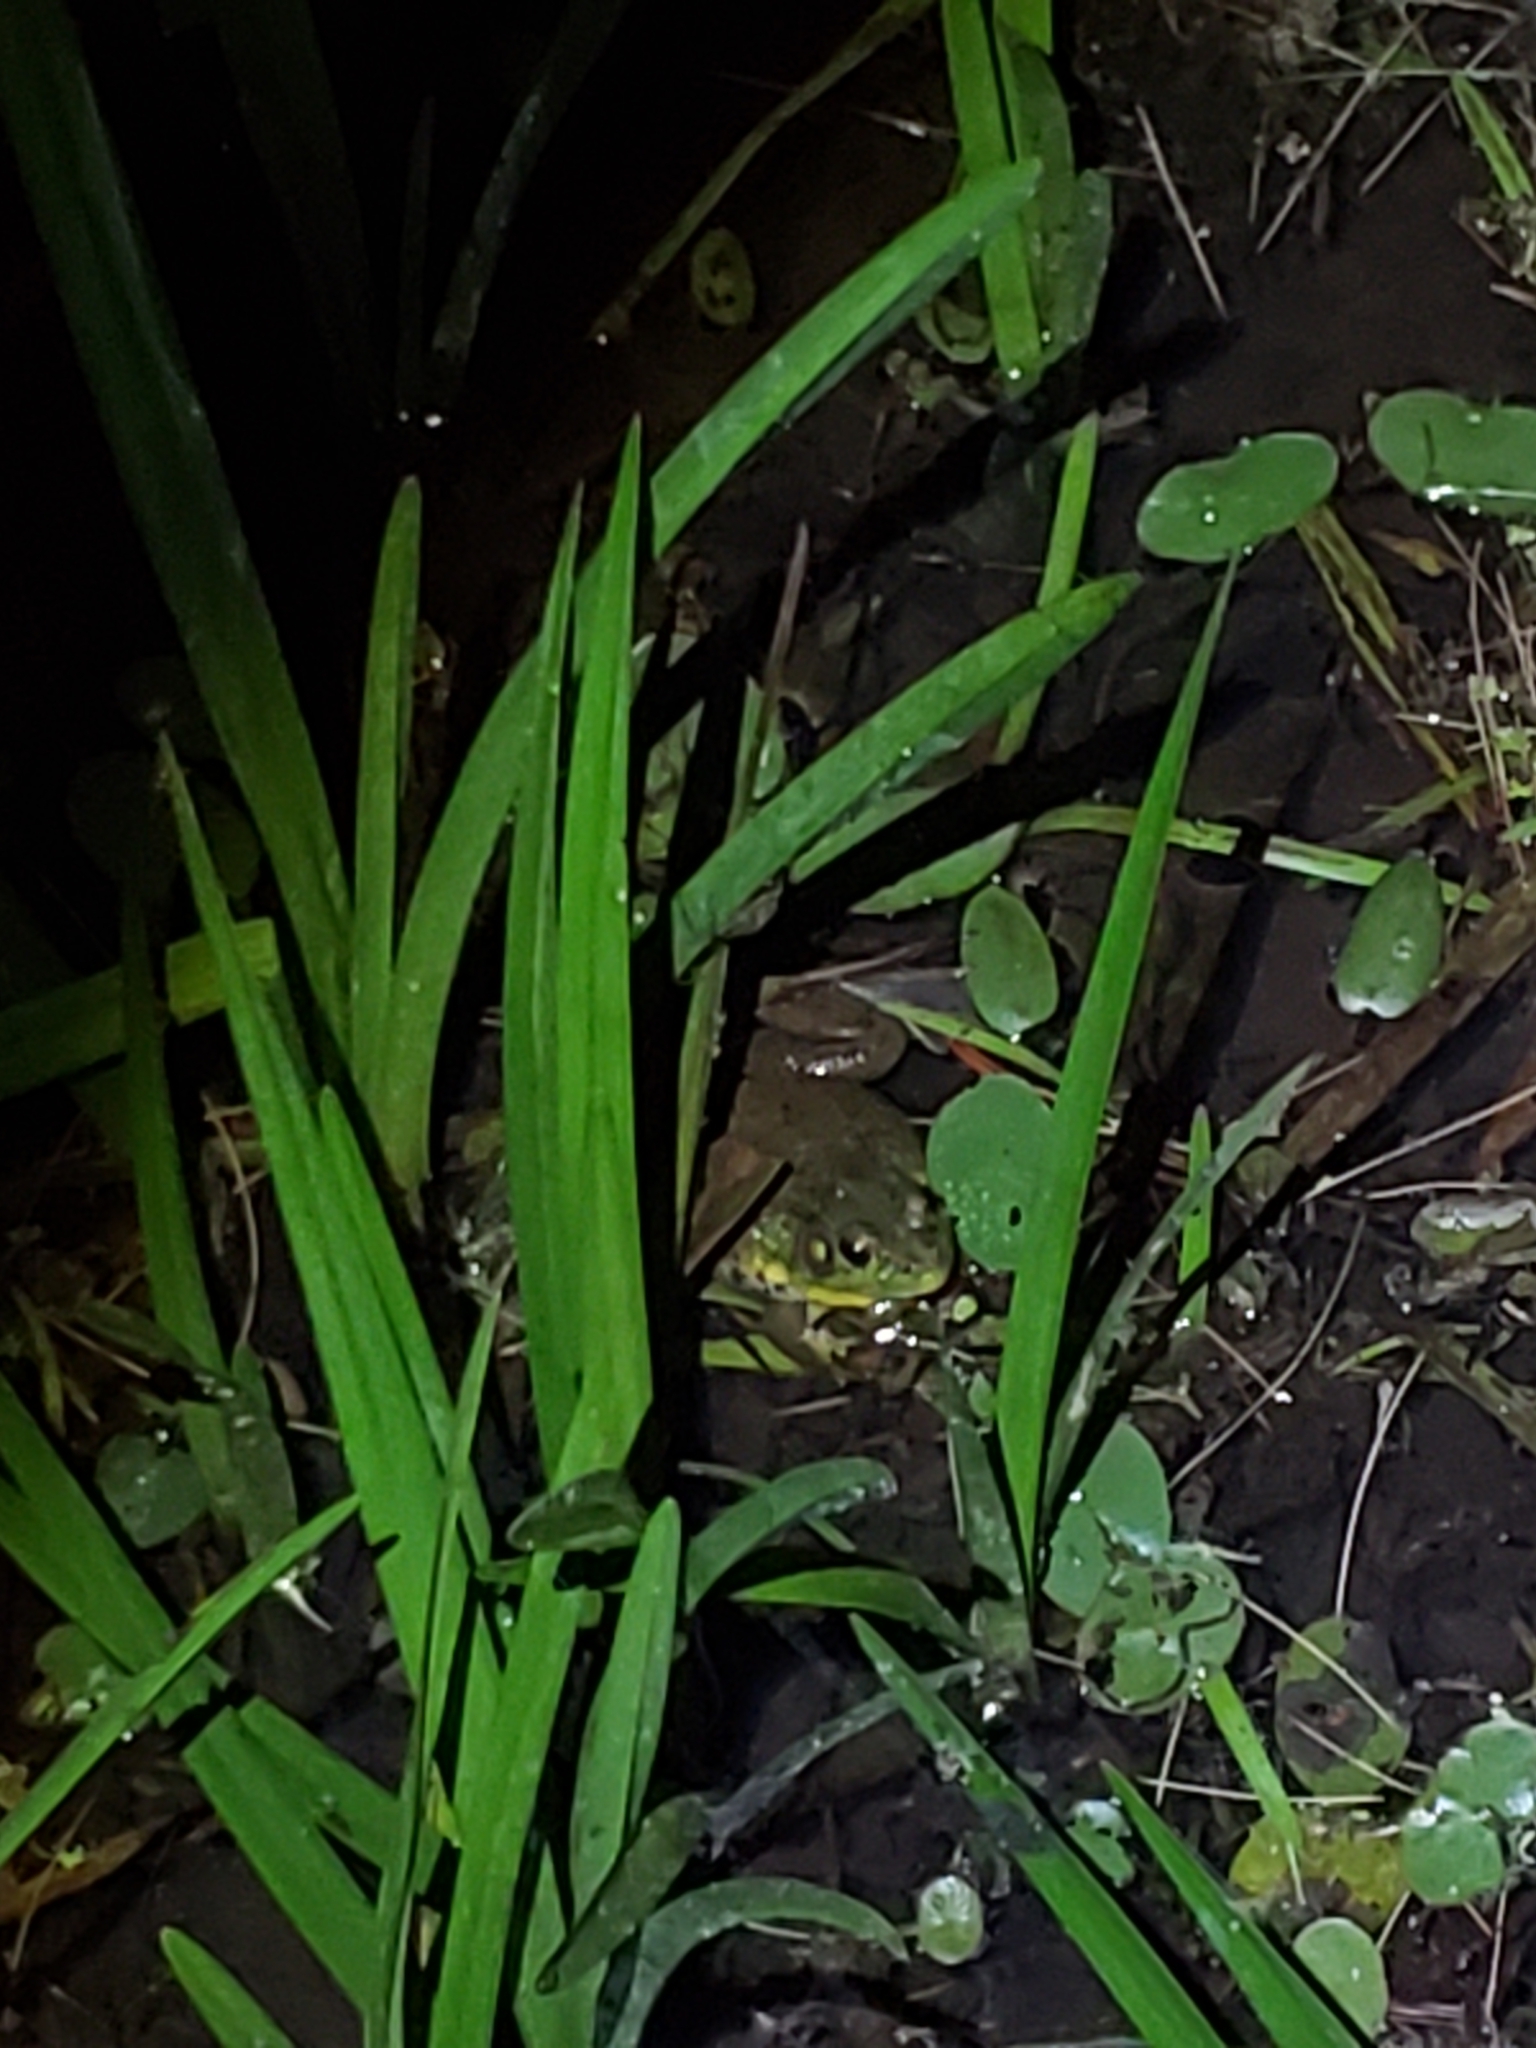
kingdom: Animalia
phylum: Chordata
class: Amphibia
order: Anura
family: Ranidae
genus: Lithobates
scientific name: Lithobates clamitans
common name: Green frog
